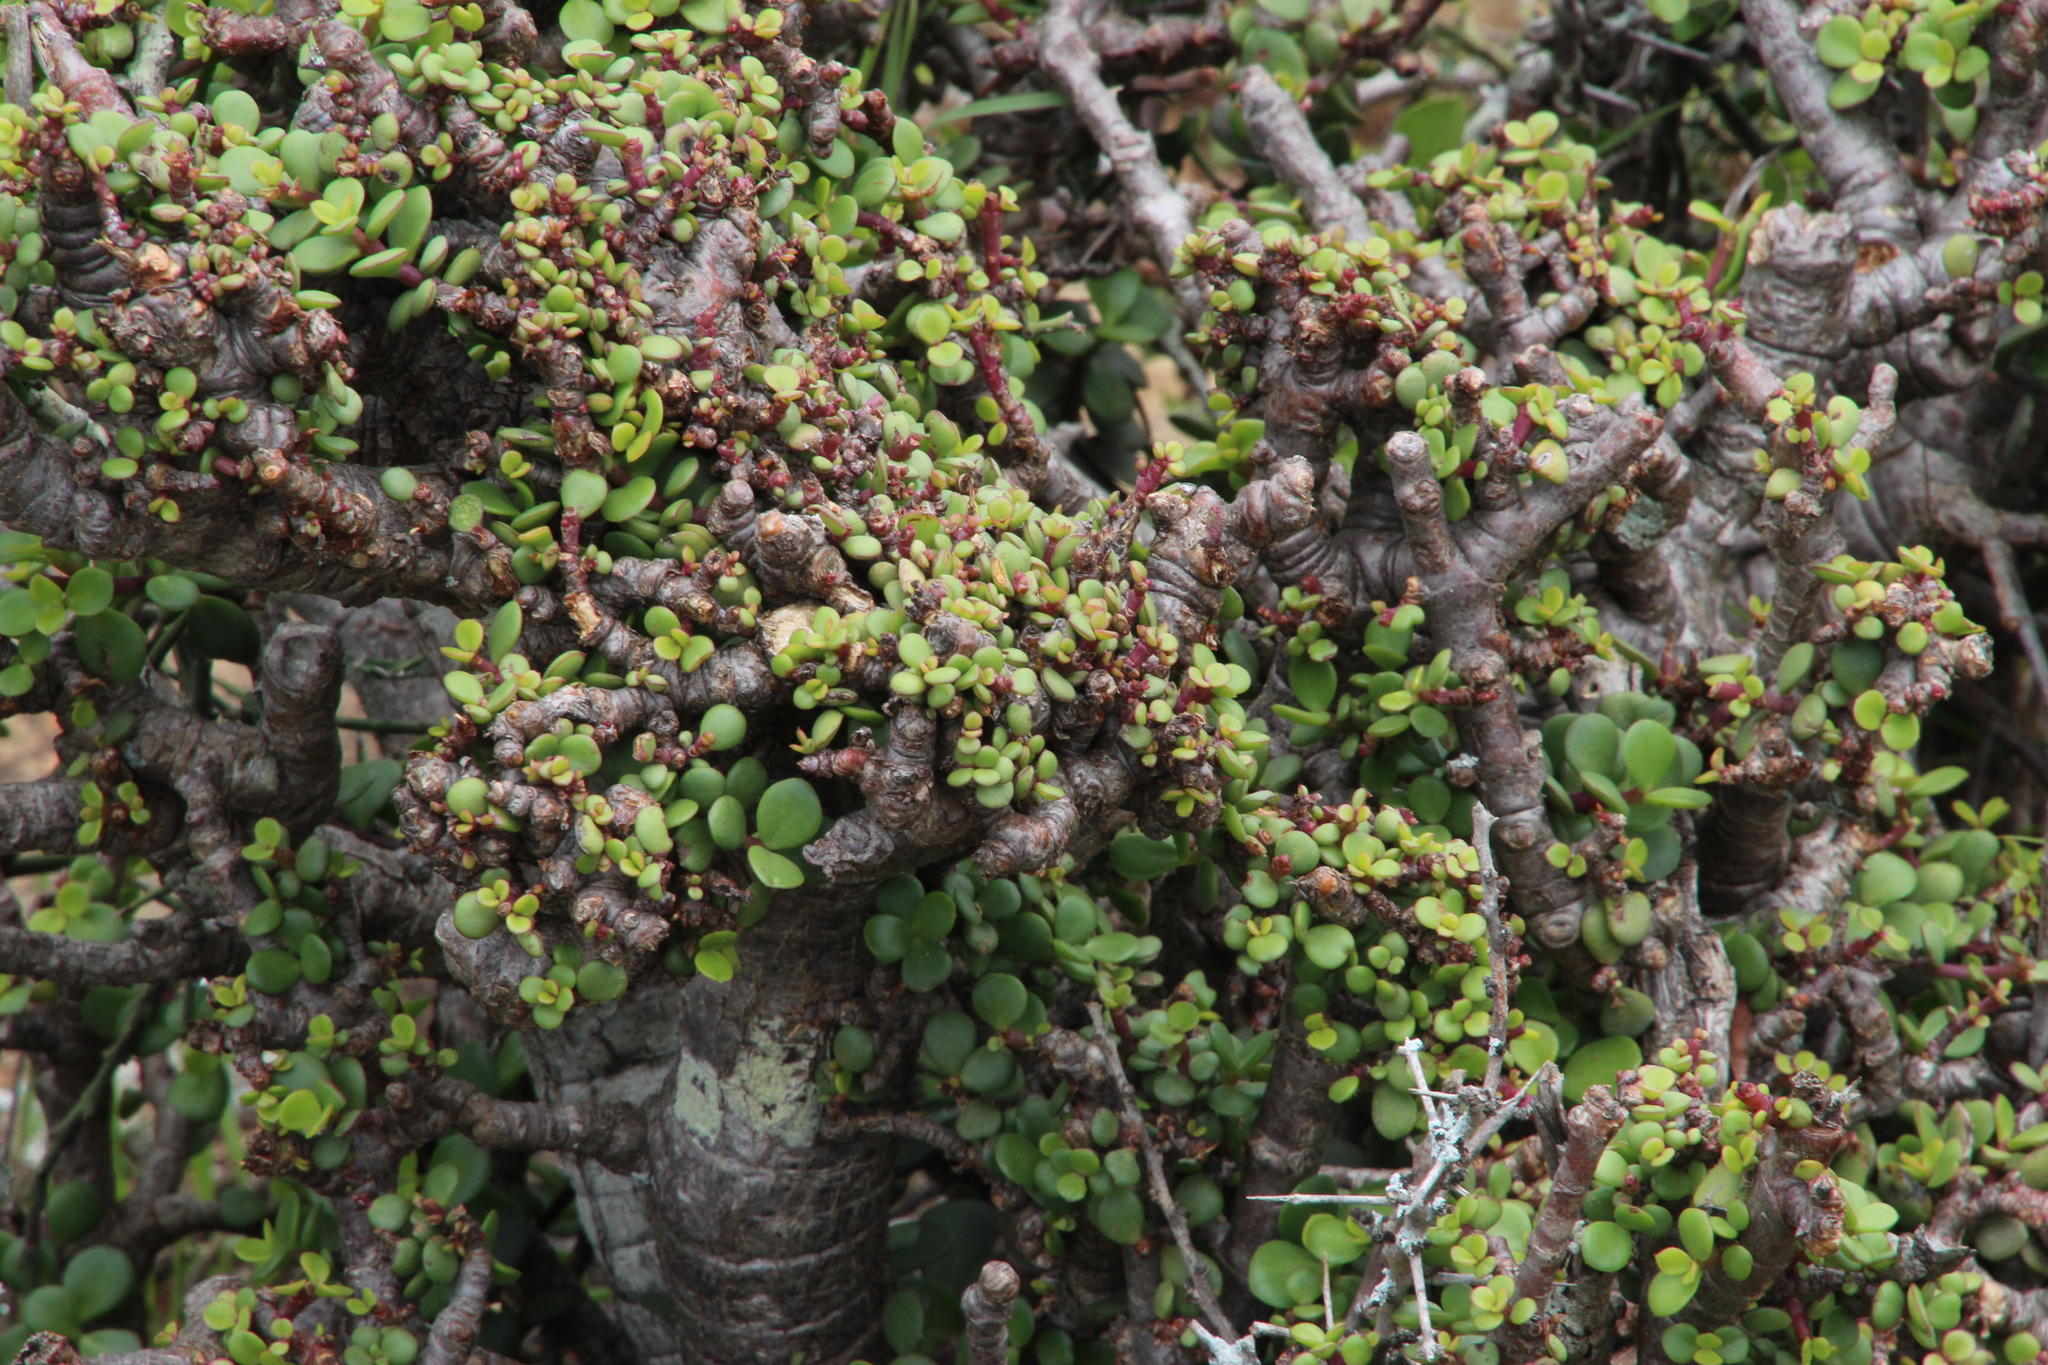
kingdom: Plantae
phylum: Tracheophyta
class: Magnoliopsida
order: Caryophyllales
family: Didiereaceae
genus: Portulacaria
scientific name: Portulacaria afra
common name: Elephant-bush
